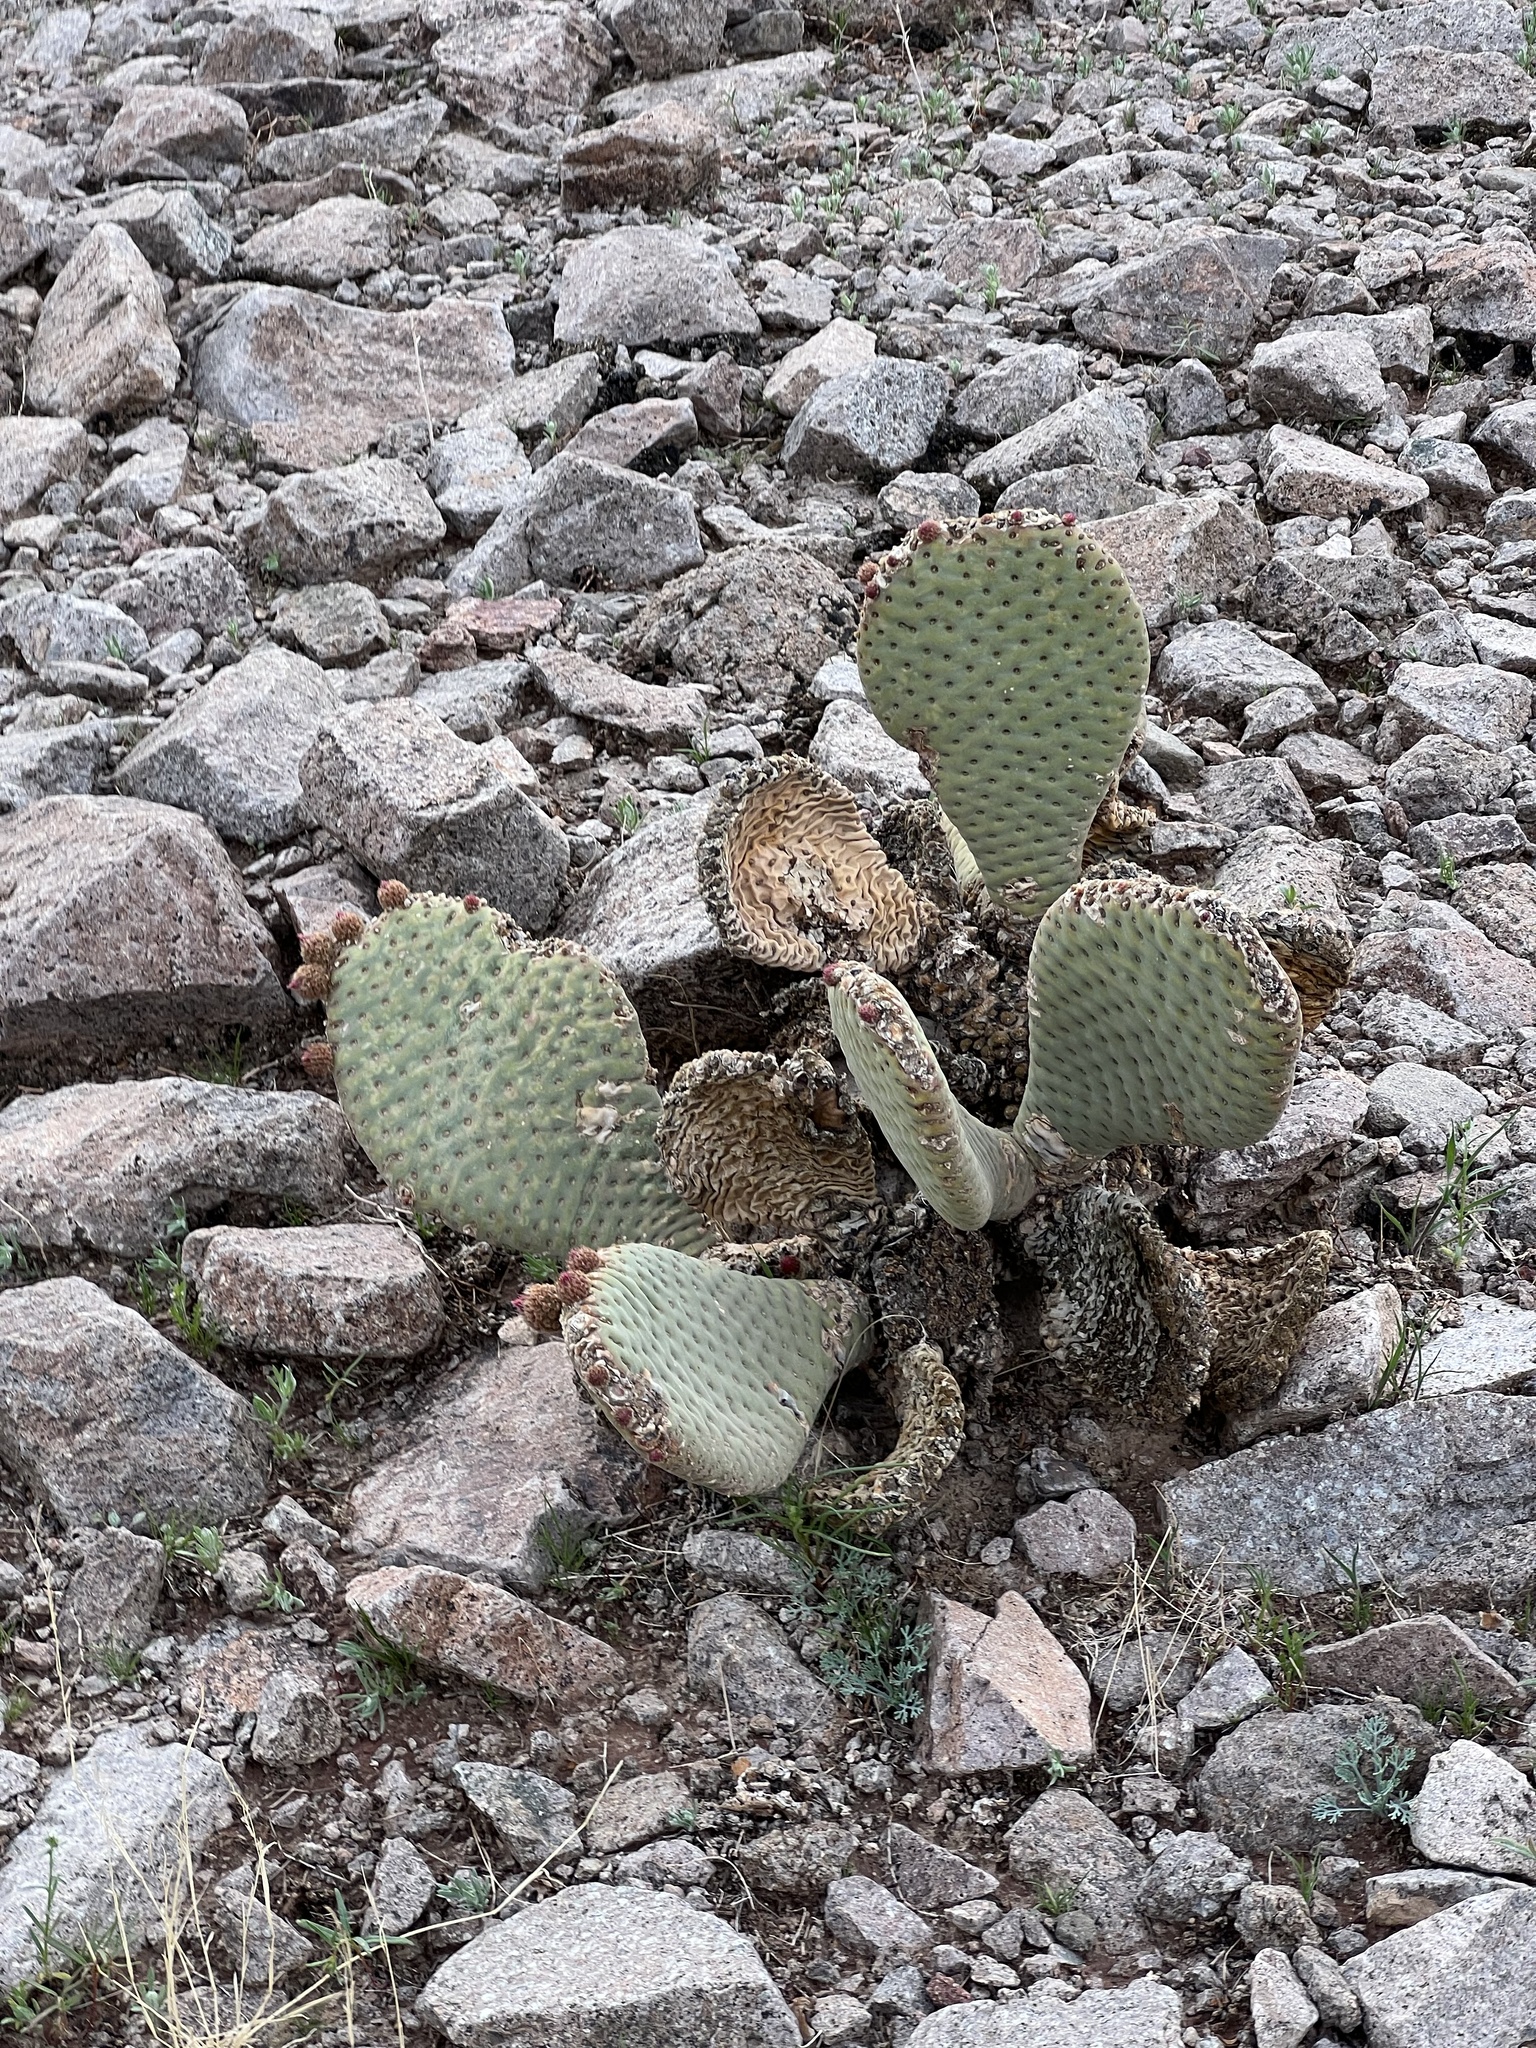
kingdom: Plantae
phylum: Tracheophyta
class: Magnoliopsida
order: Caryophyllales
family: Cactaceae
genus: Opuntia
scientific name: Opuntia basilaris
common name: Beavertail prickly-pear
